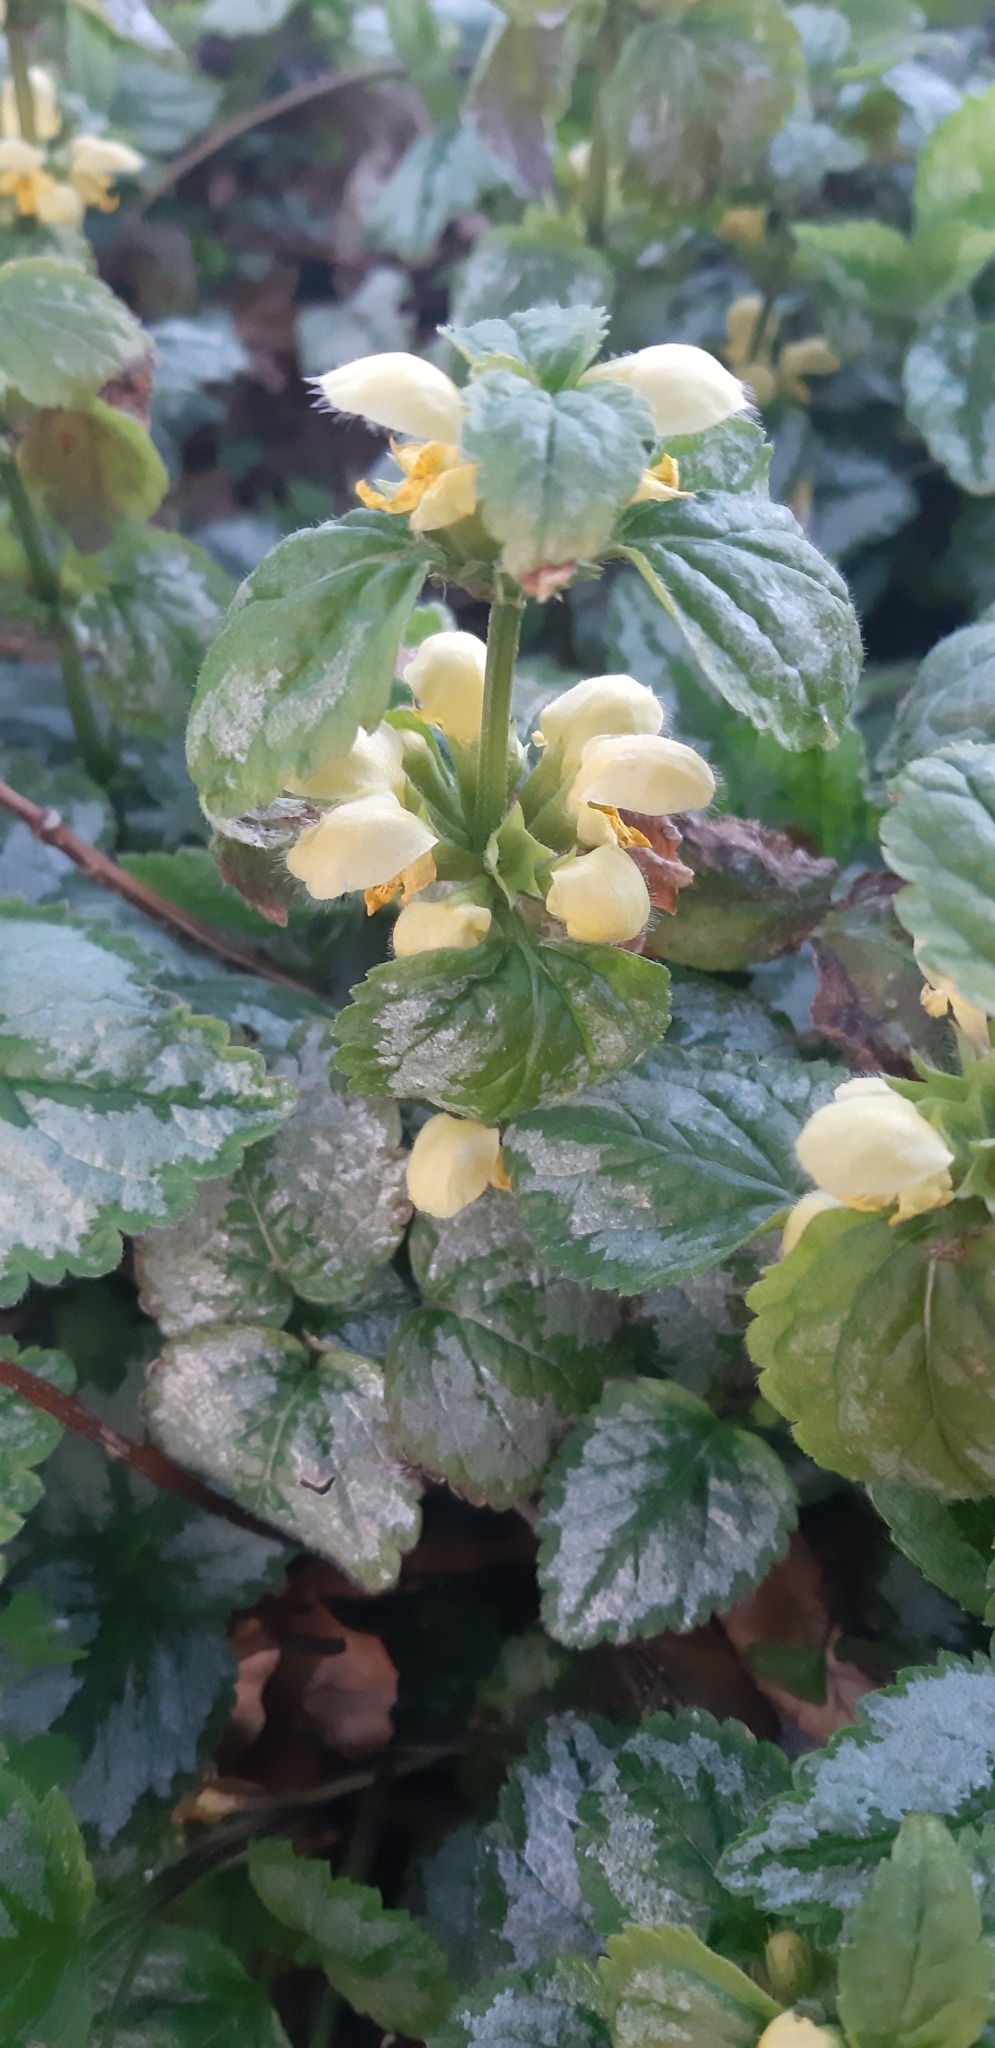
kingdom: Plantae
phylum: Tracheophyta
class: Magnoliopsida
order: Lamiales
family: Lamiaceae
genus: Lamium
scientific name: Lamium galeobdolon
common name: Yellow archangel
